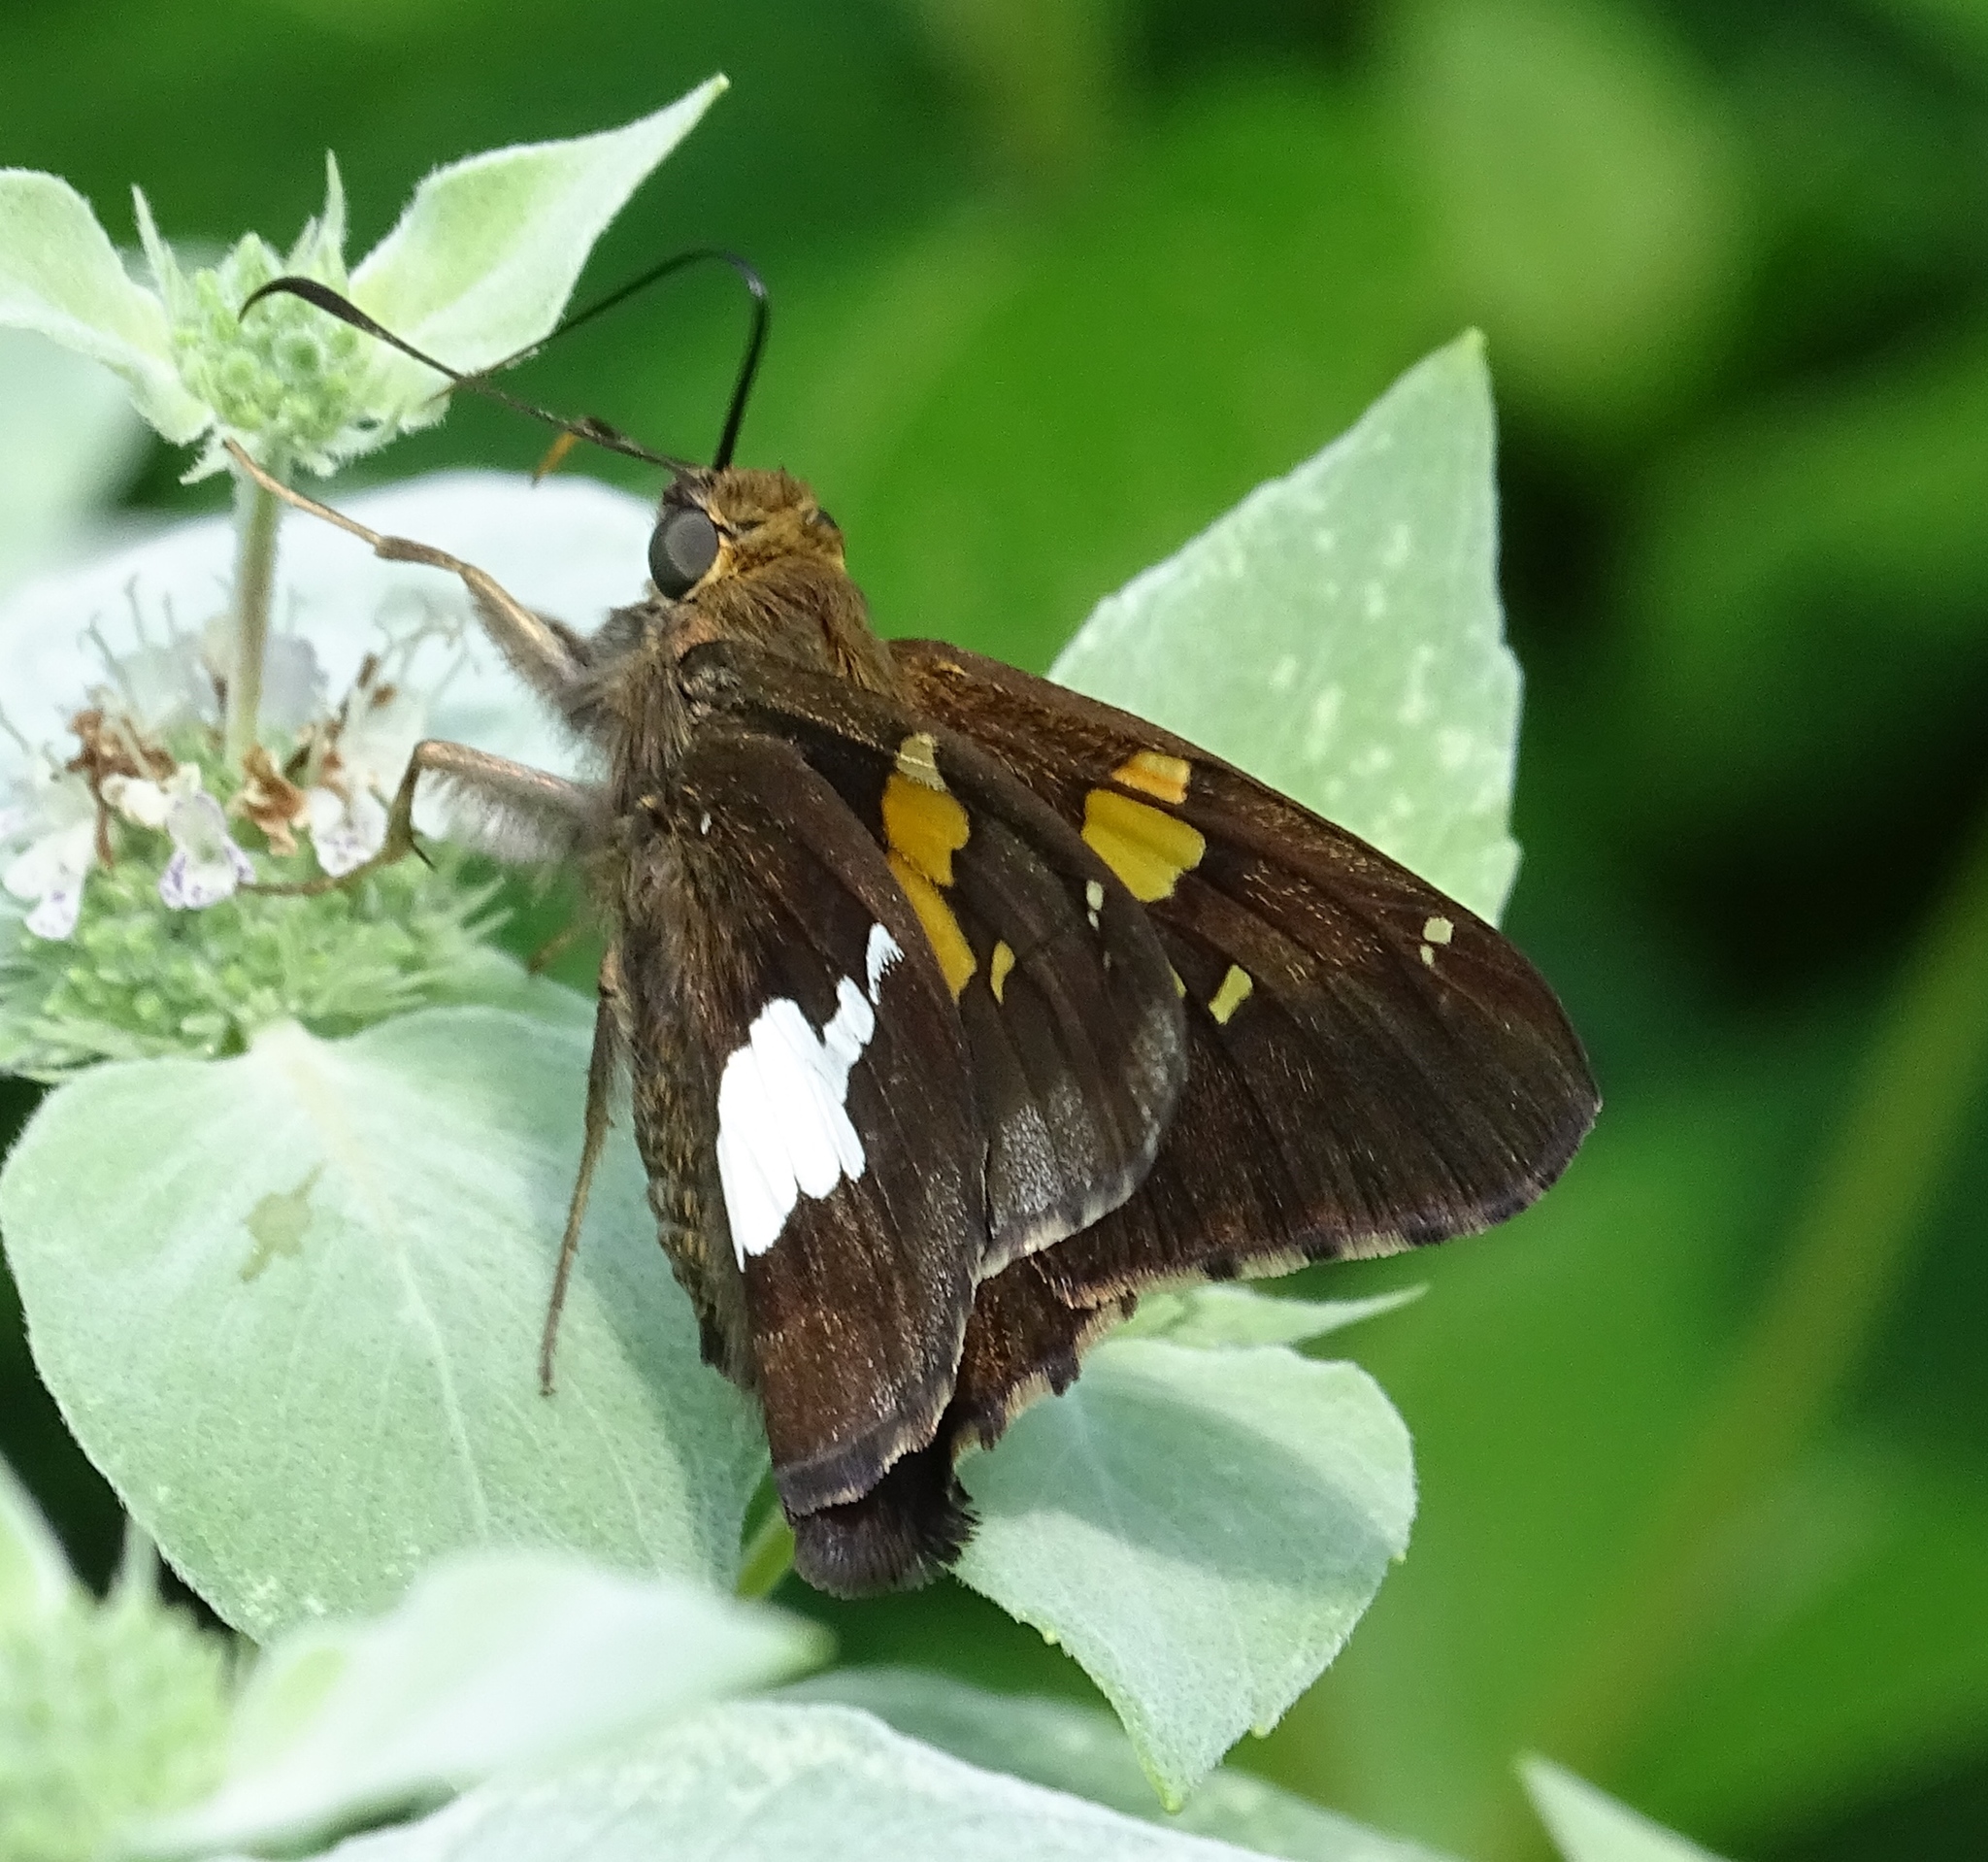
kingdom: Animalia
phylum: Arthropoda
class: Insecta
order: Lepidoptera
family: Hesperiidae
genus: Epargyreus
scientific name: Epargyreus clarus
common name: Silver-spotted skipper
